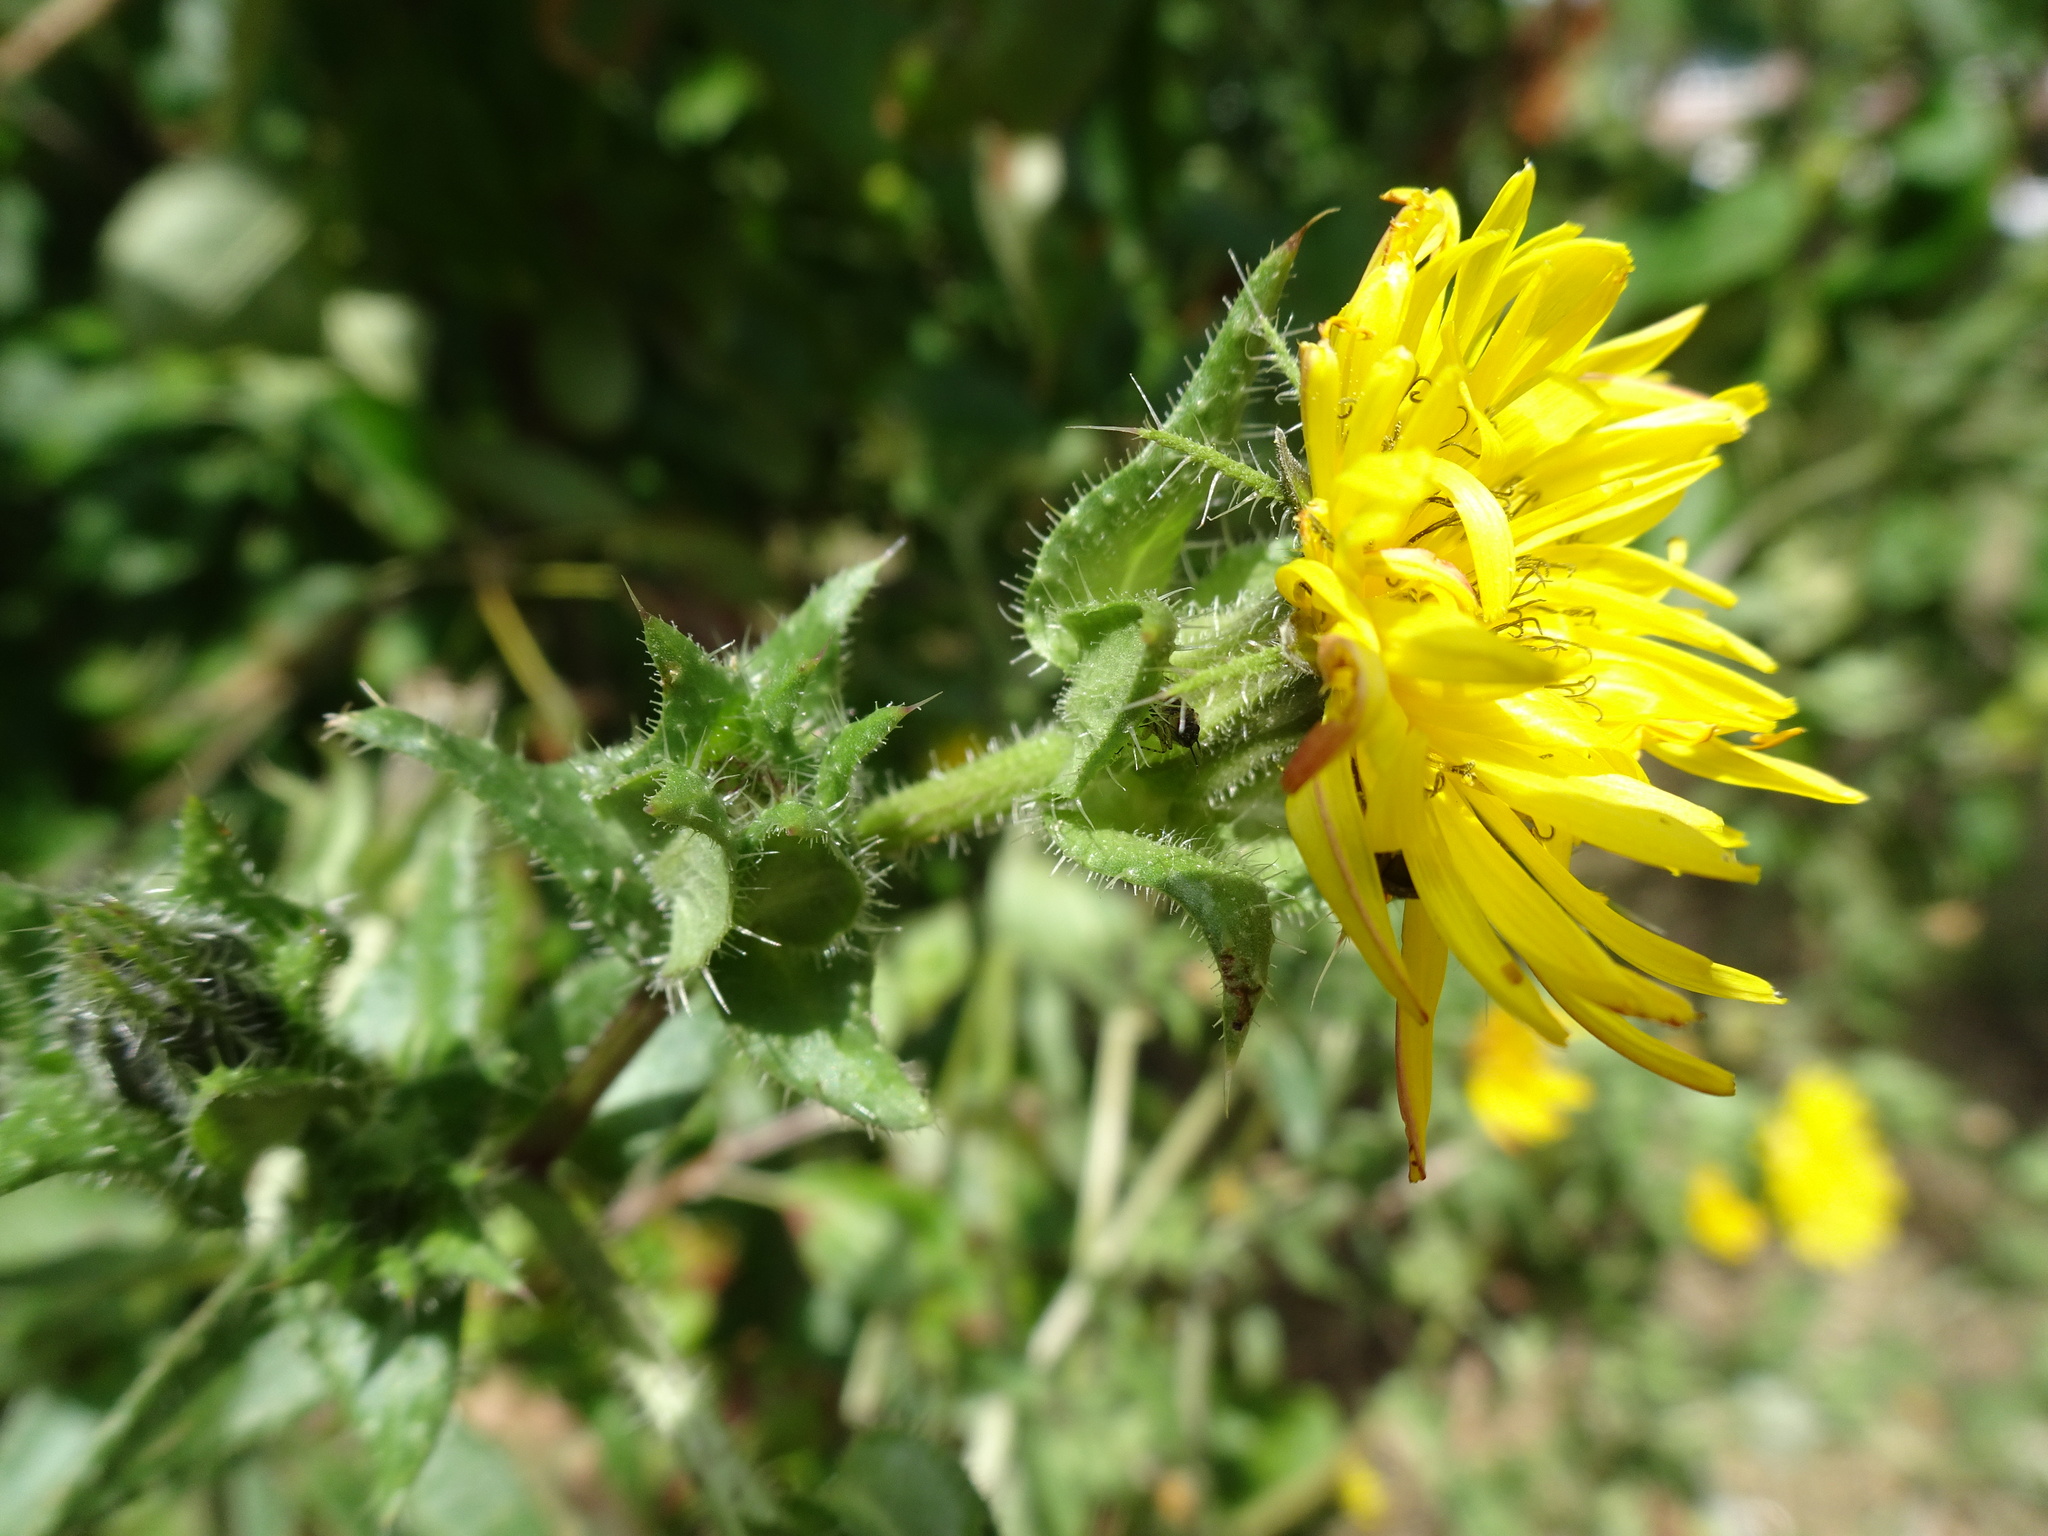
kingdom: Plantae
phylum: Tracheophyta
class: Magnoliopsida
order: Asterales
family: Asteraceae
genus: Helminthotheca
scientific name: Helminthotheca echioides
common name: Ox-tongue
